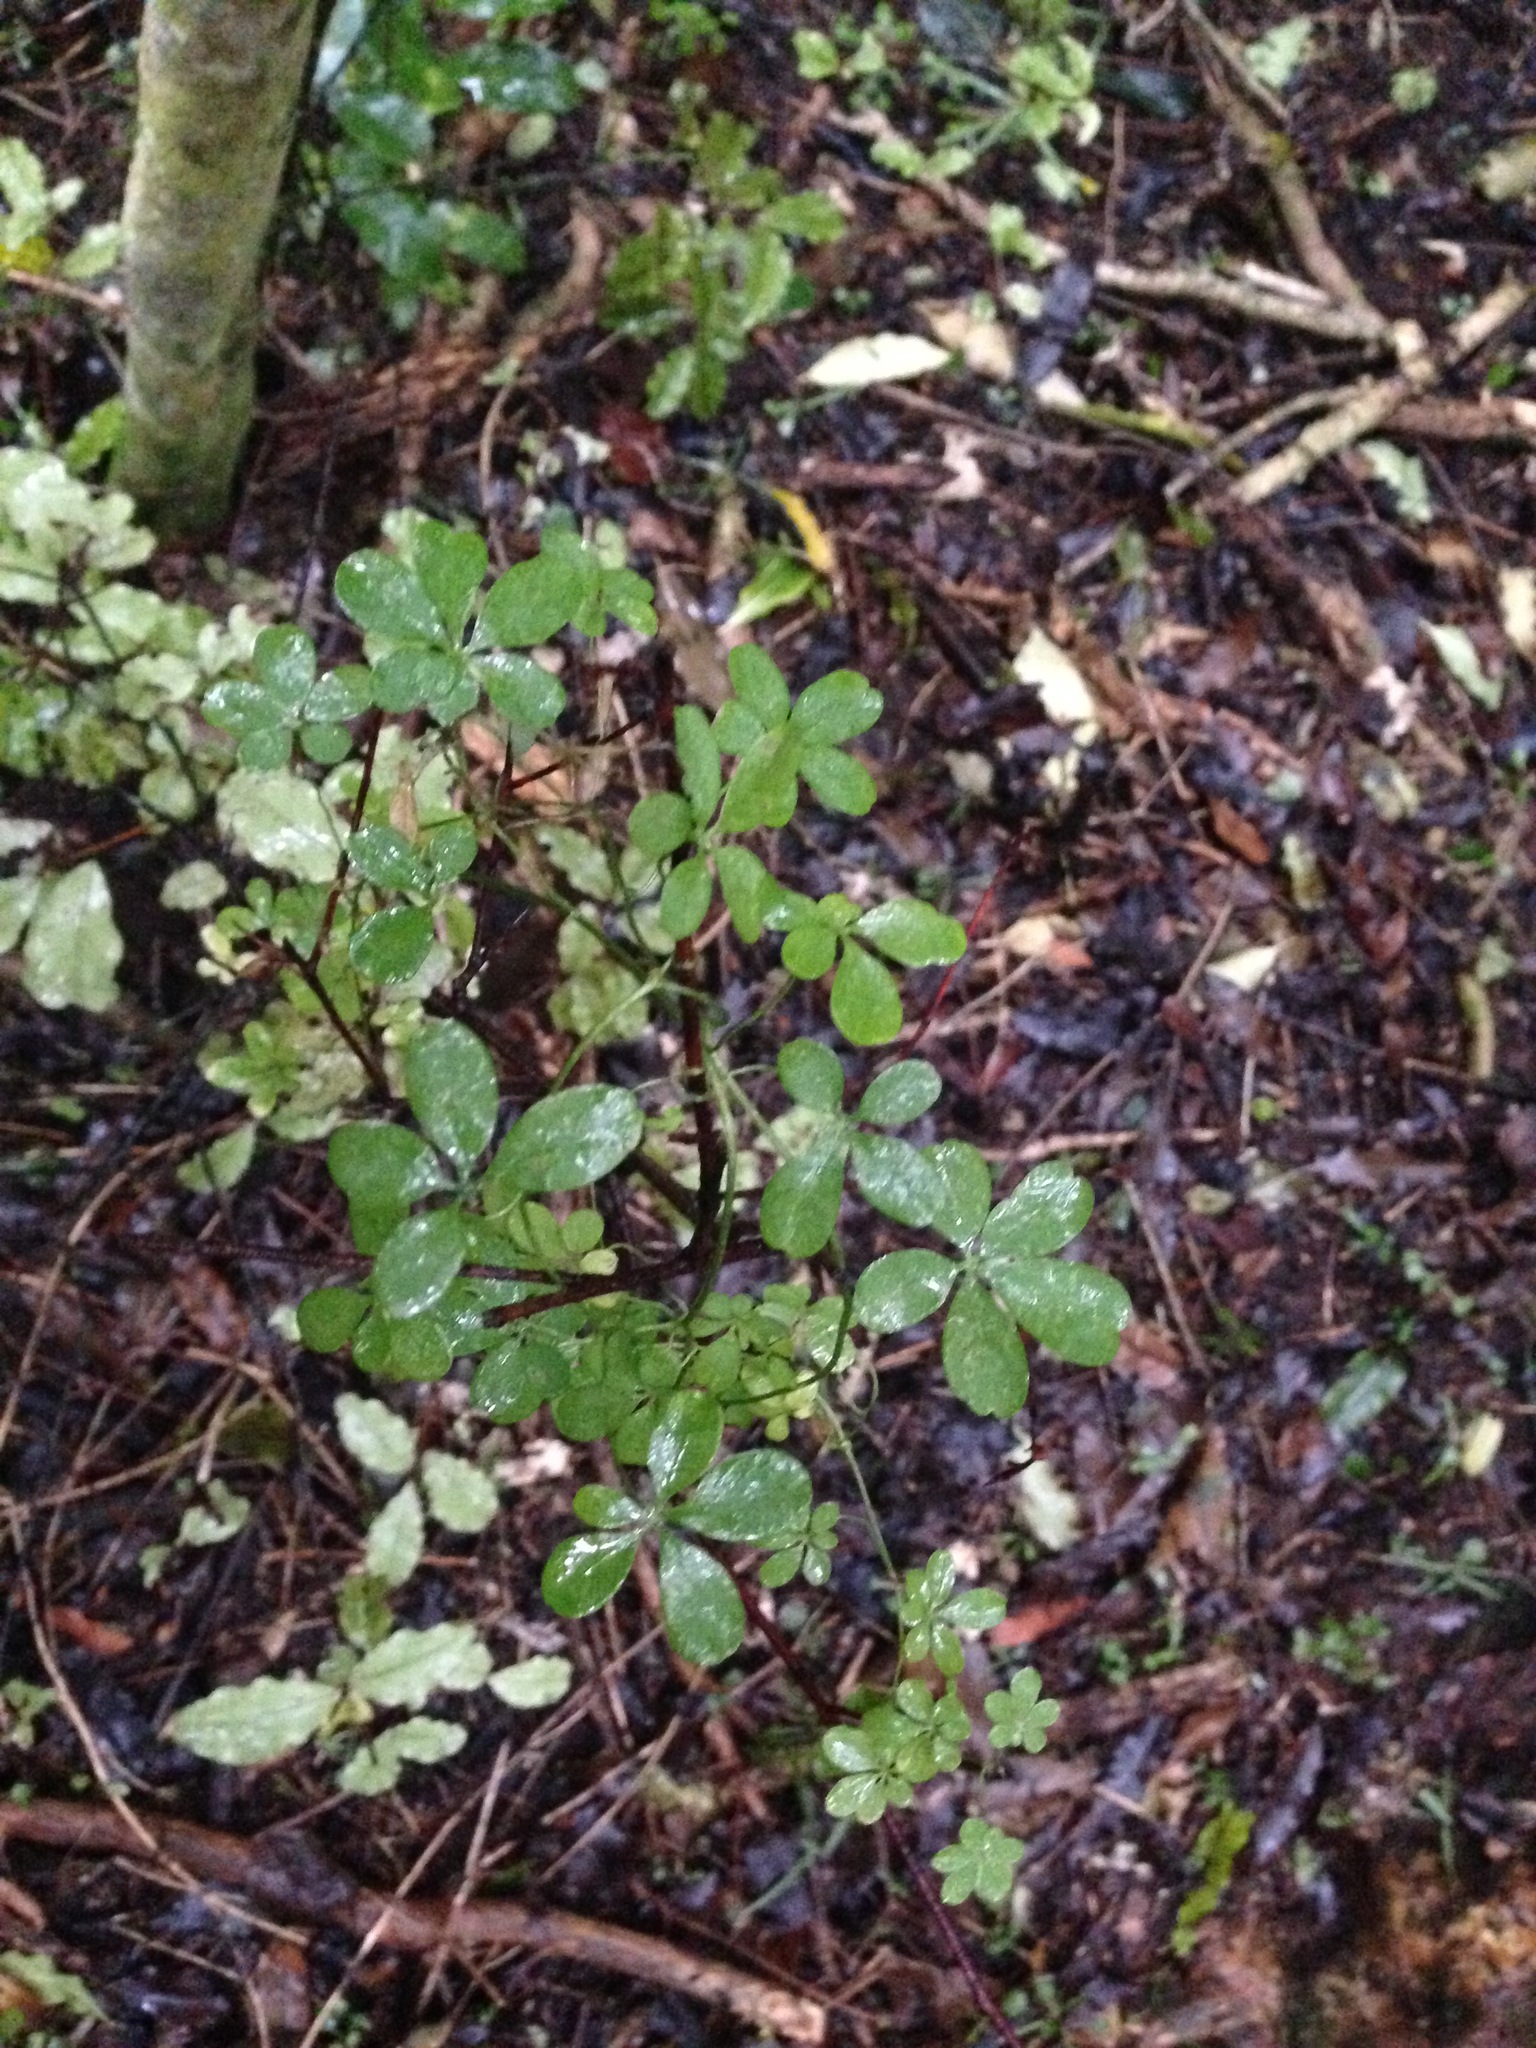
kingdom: Plantae
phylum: Tracheophyta
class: Magnoliopsida
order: Brassicales
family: Tropaeolaceae
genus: Tropaeolum
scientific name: Tropaeolum speciosum
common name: Flame nasturtium
